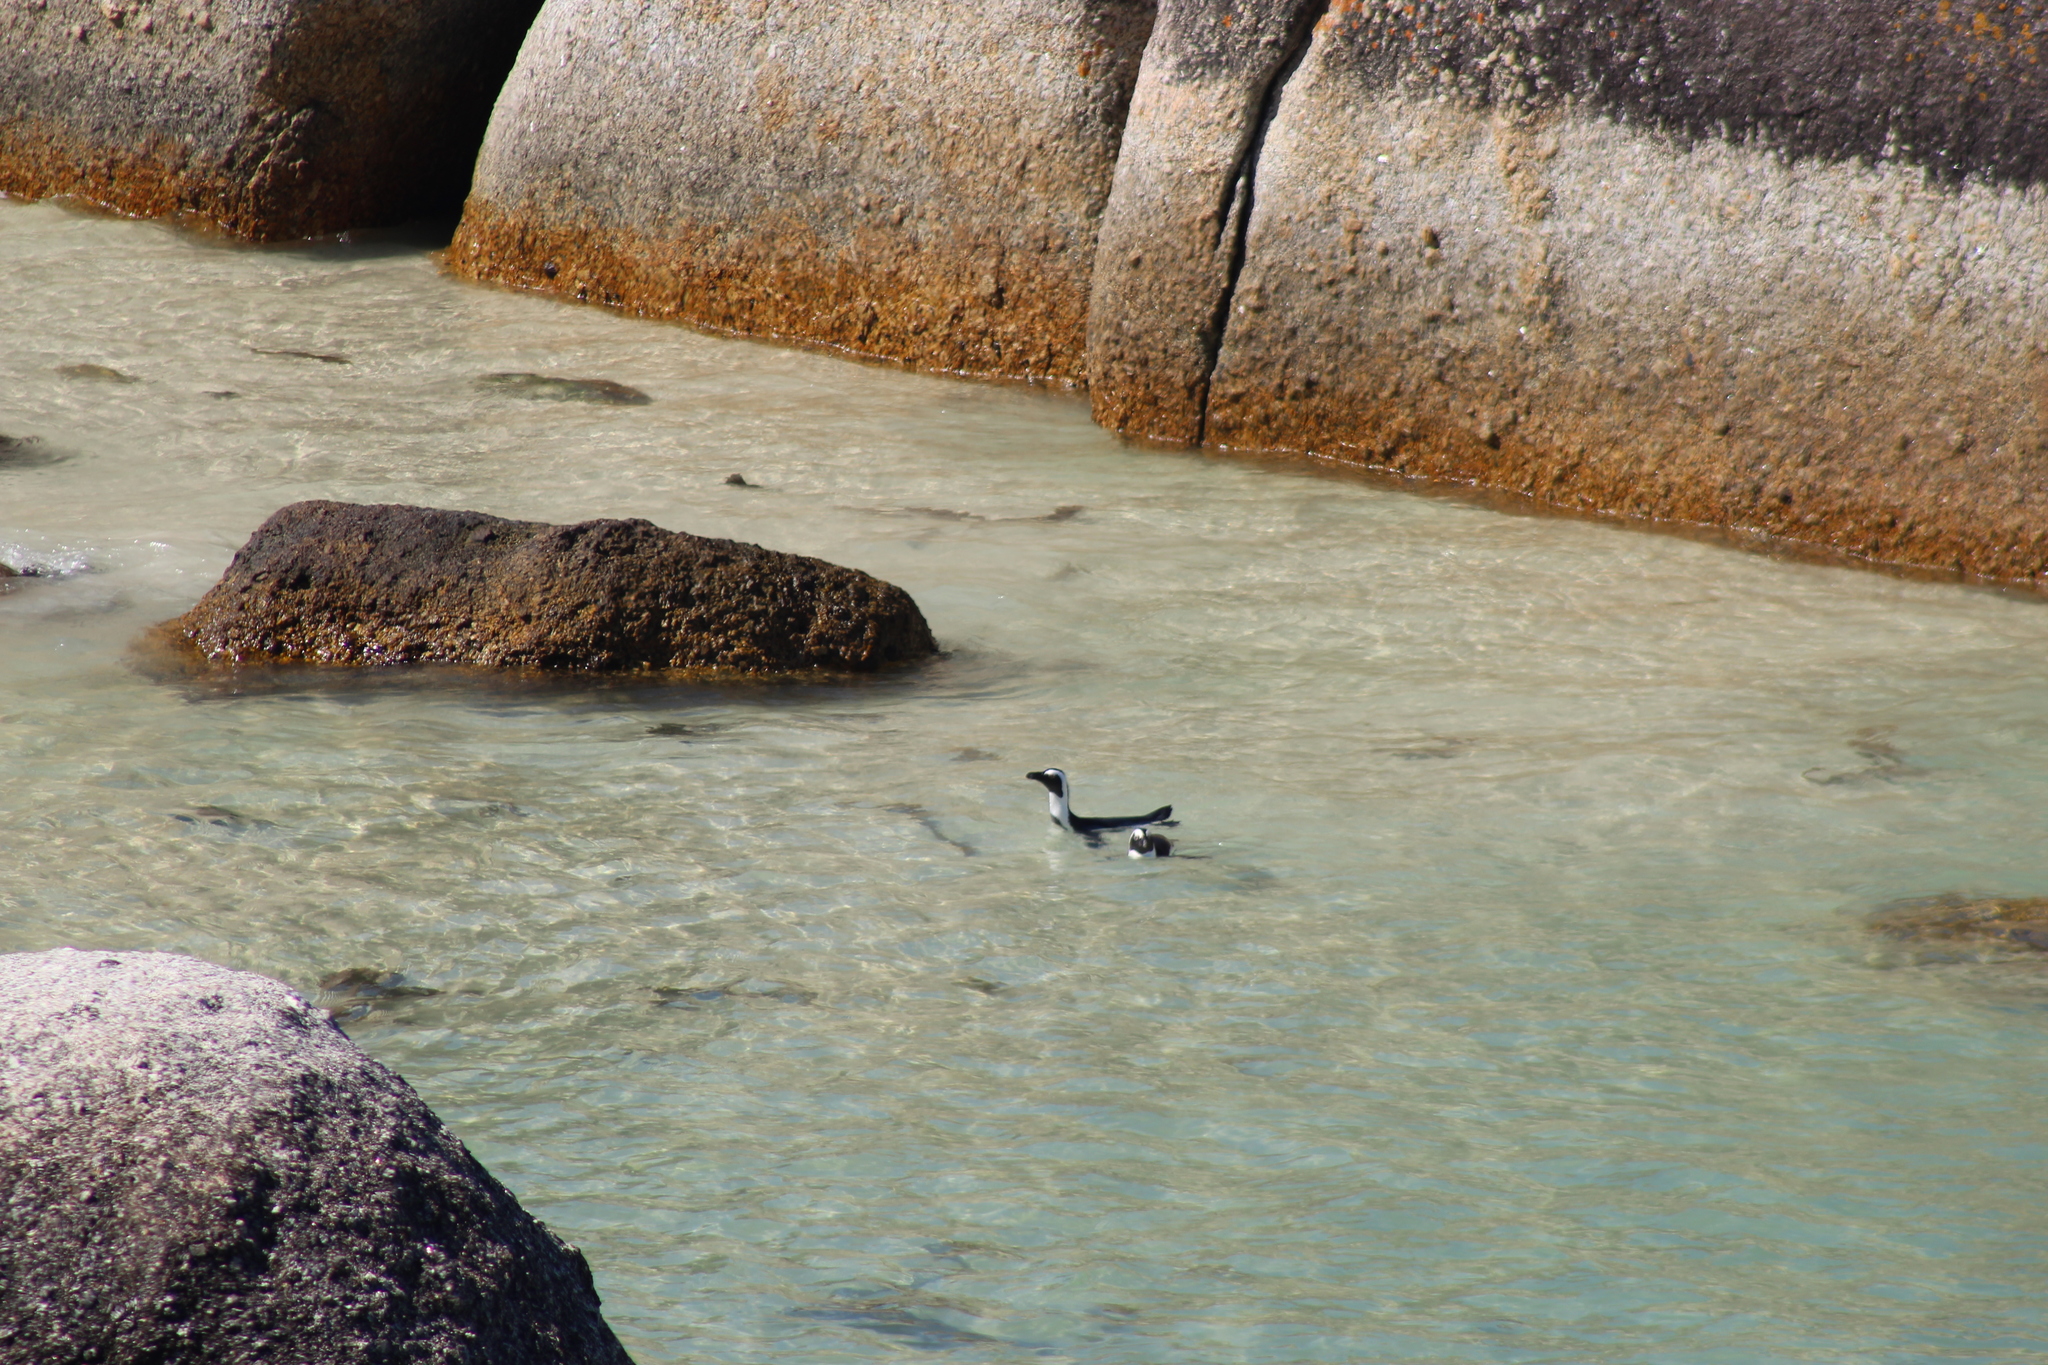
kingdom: Animalia
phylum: Chordata
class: Aves
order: Sphenisciformes
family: Spheniscidae
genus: Spheniscus
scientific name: Spheniscus demersus
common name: African penguin
